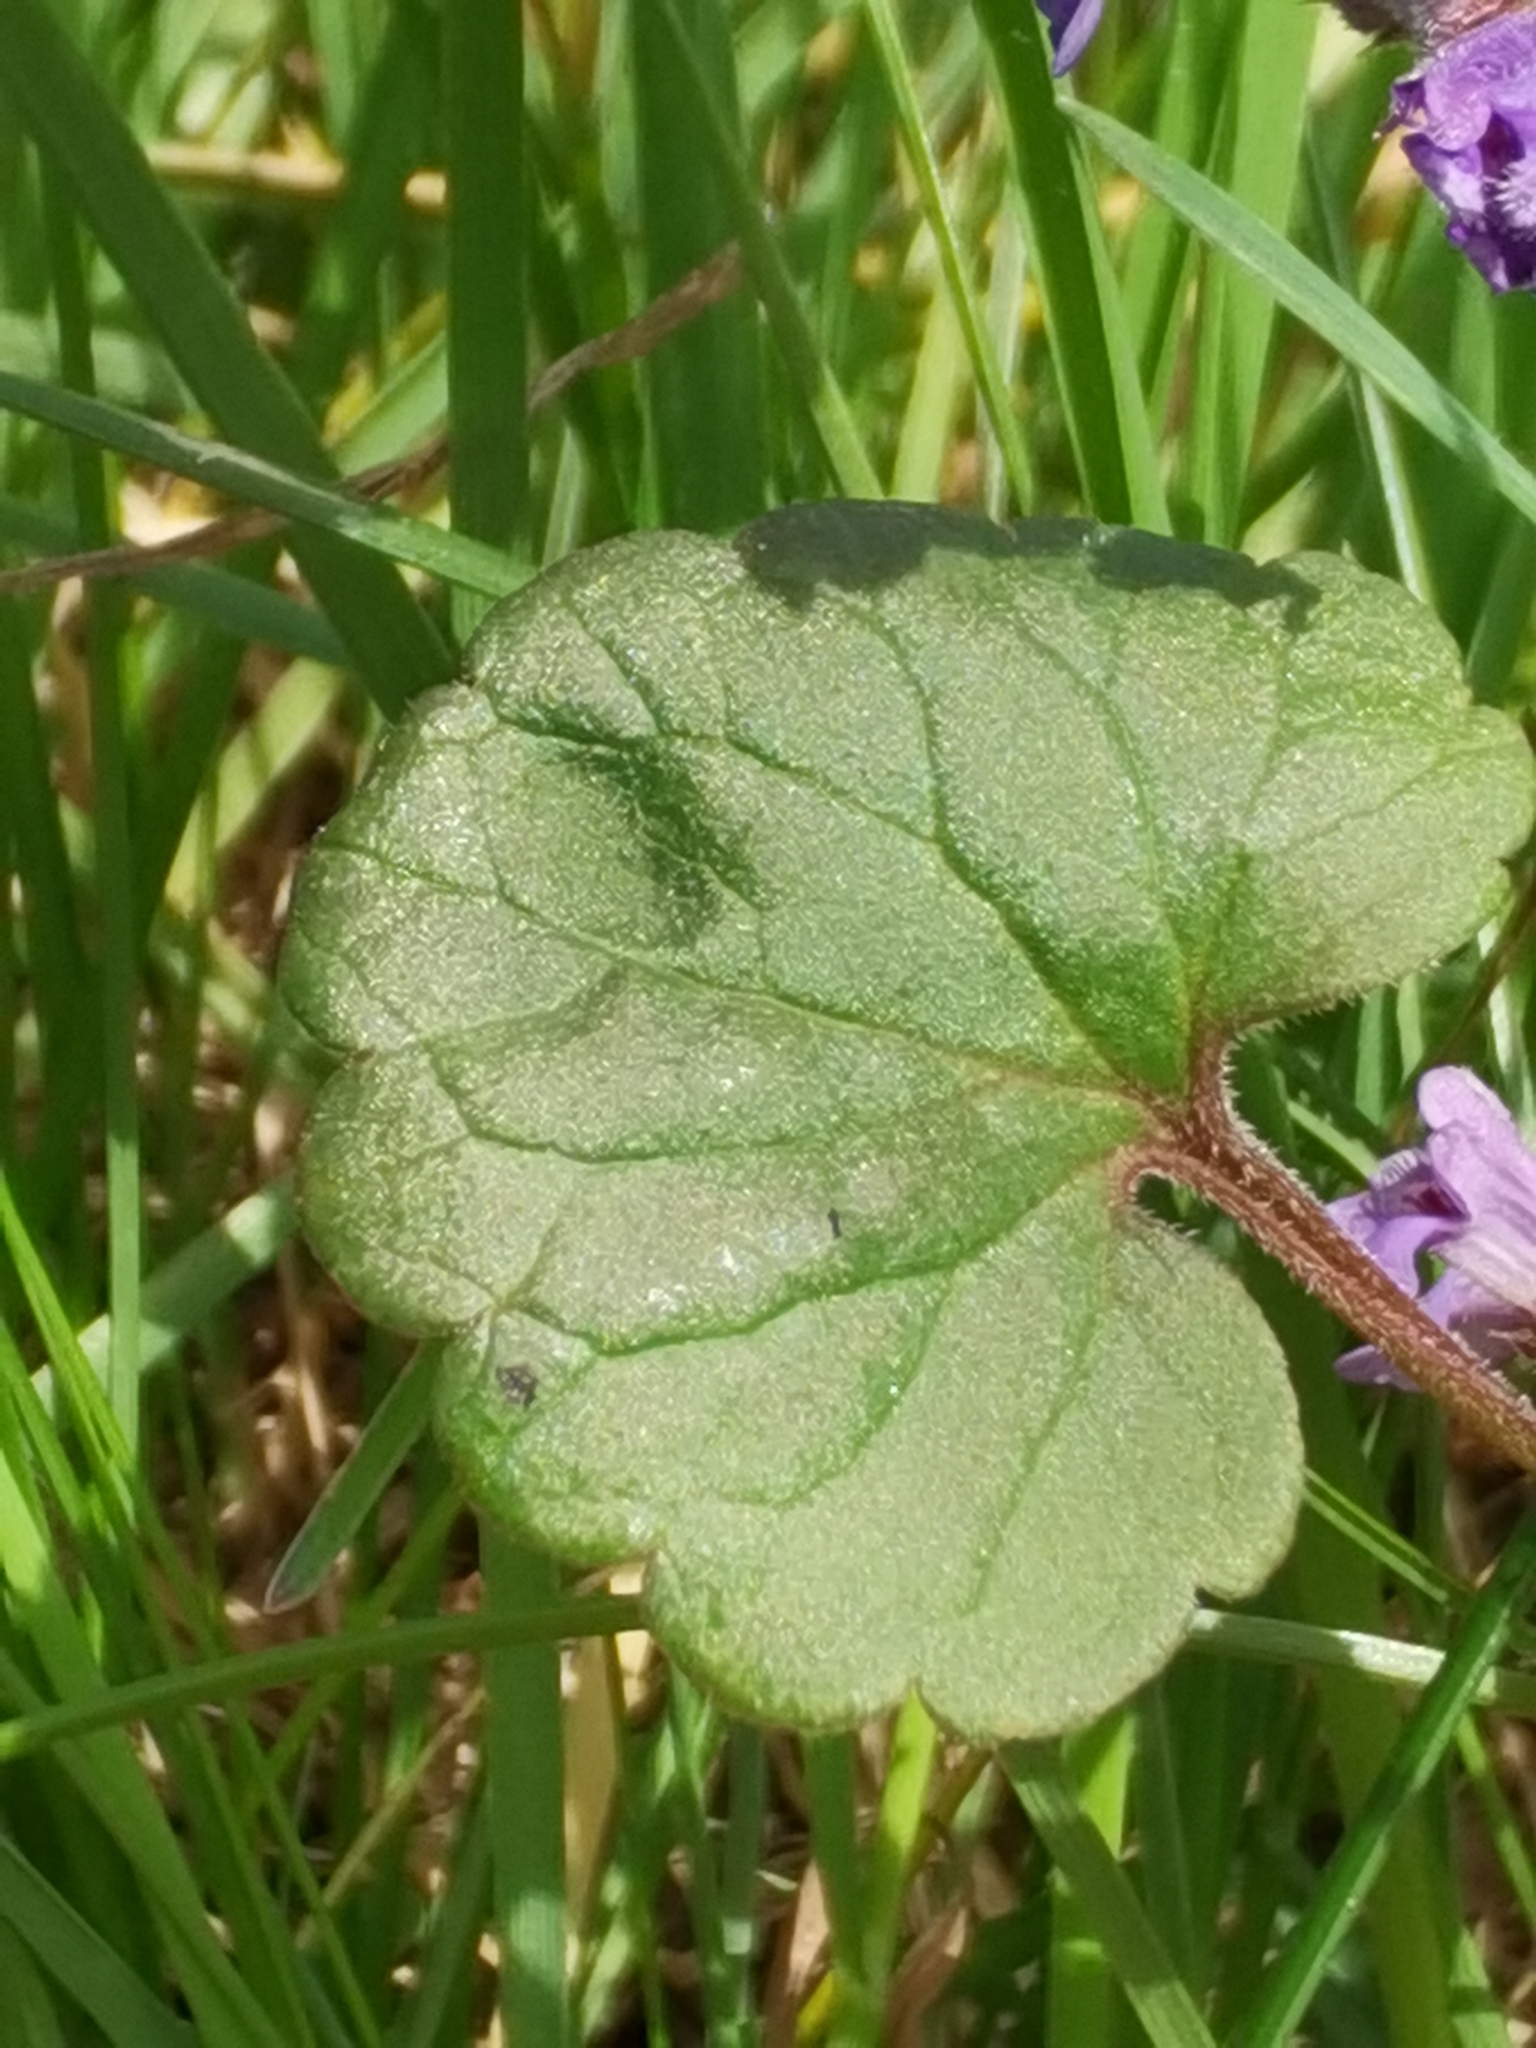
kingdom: Plantae
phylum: Tracheophyta
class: Magnoliopsida
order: Lamiales
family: Lamiaceae
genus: Glechoma
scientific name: Glechoma hederacea
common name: Ground ivy
